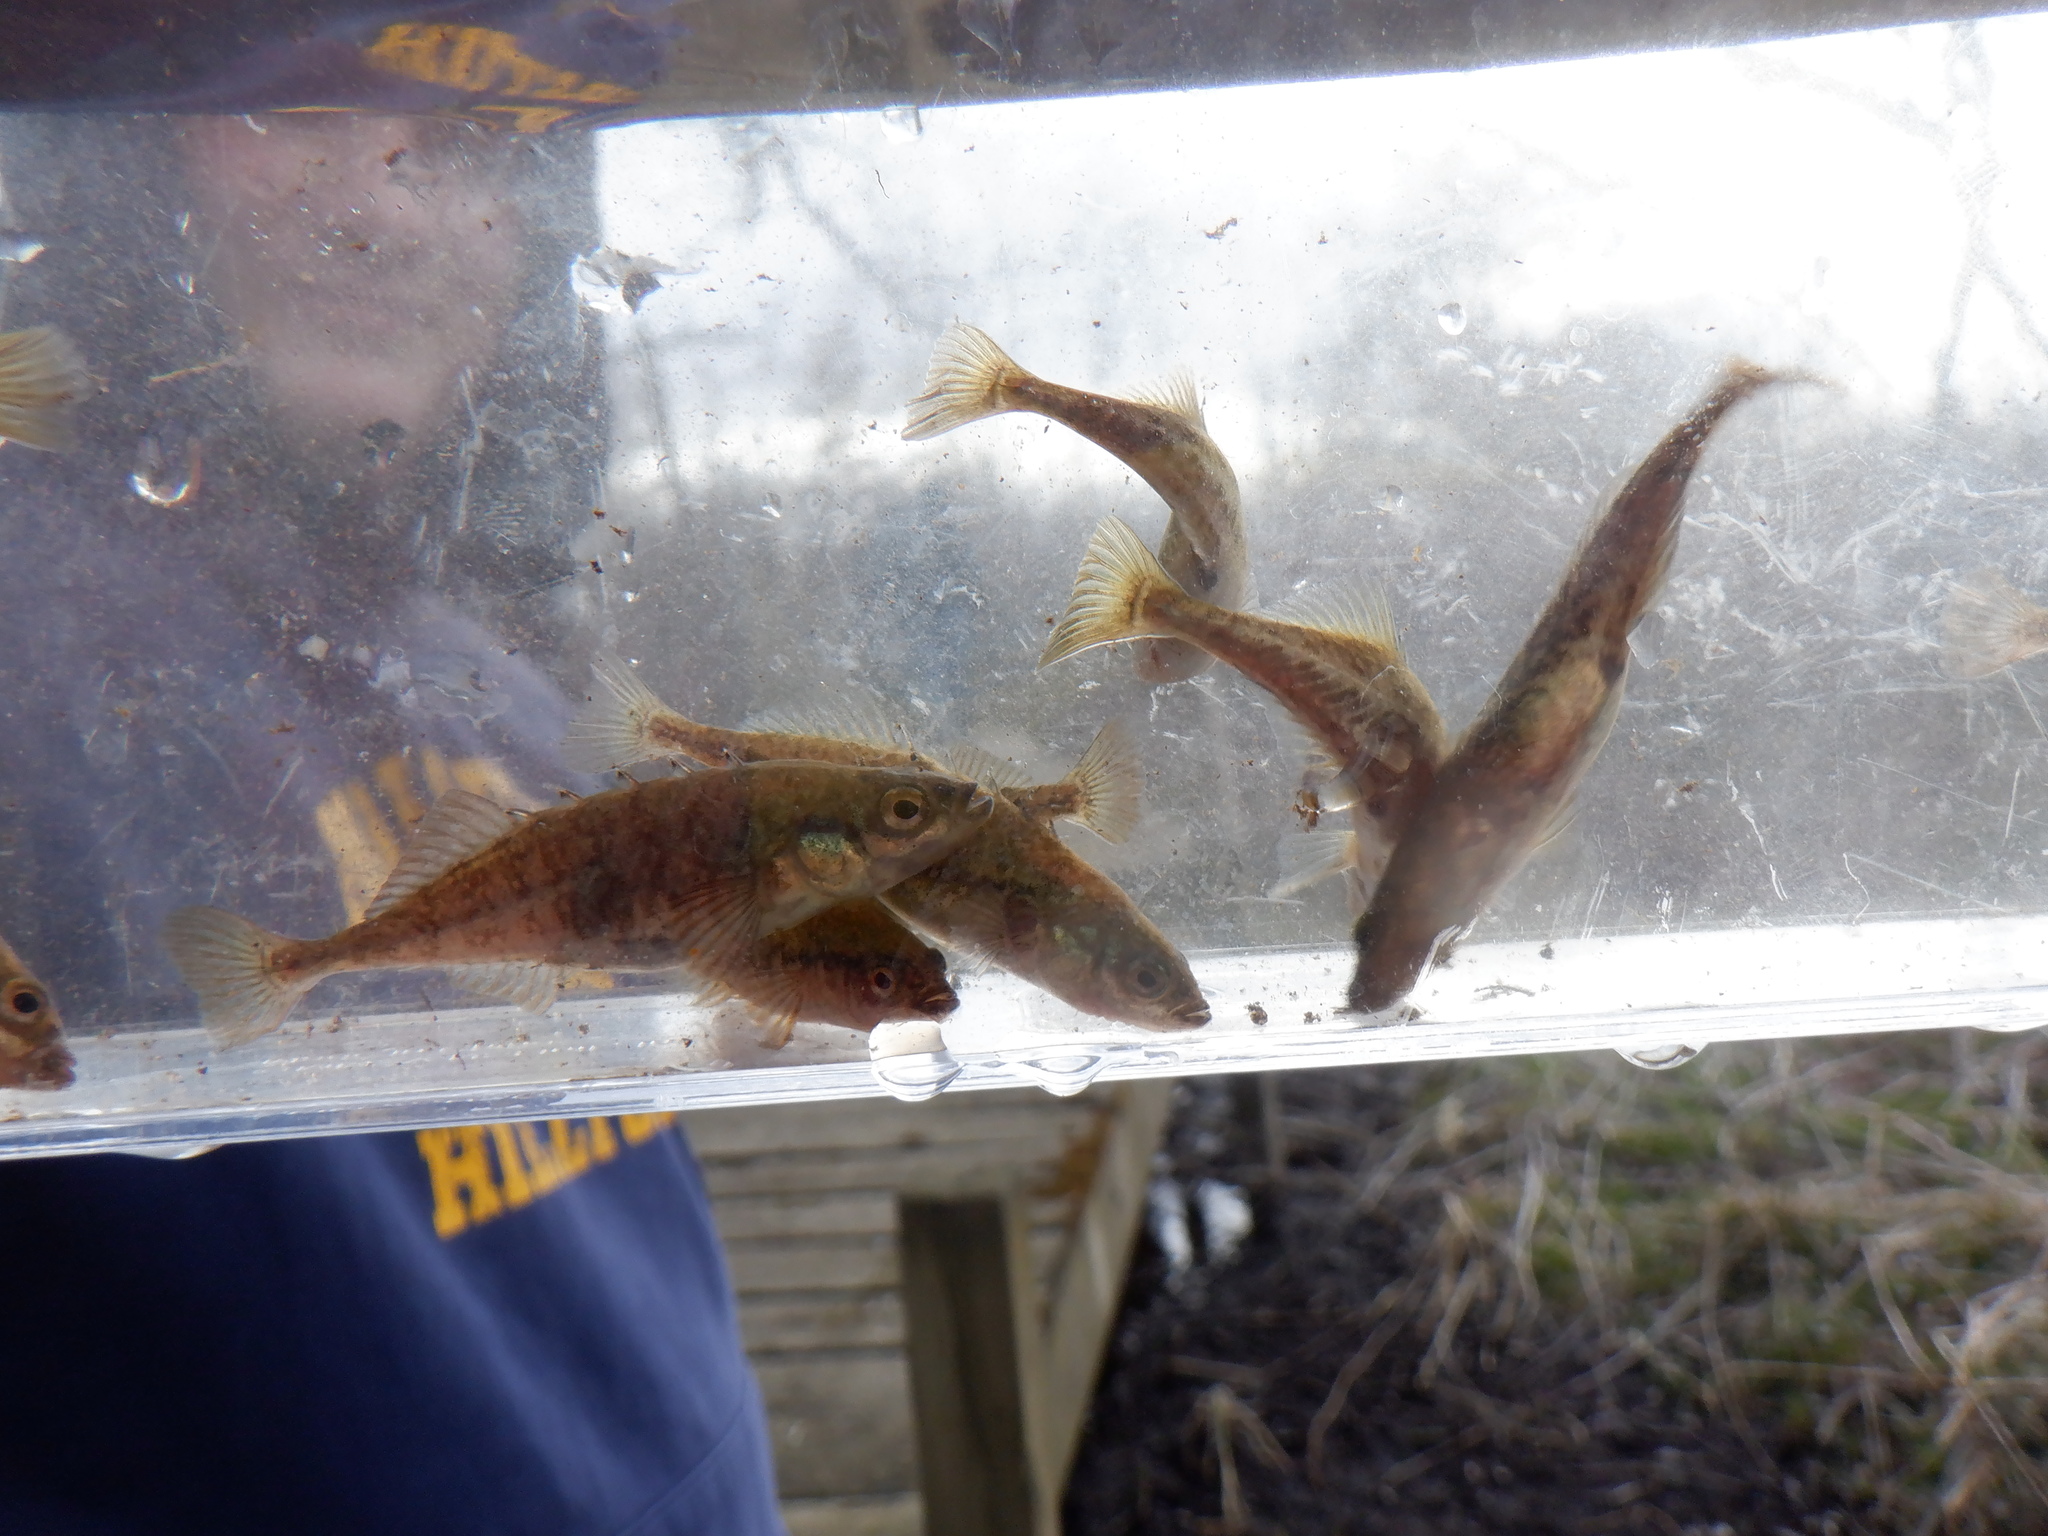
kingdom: Animalia
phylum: Chordata
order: Gasterosteiformes
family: Gasterosteidae
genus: Culaea
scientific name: Culaea inconstans
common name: Brook stickleback
